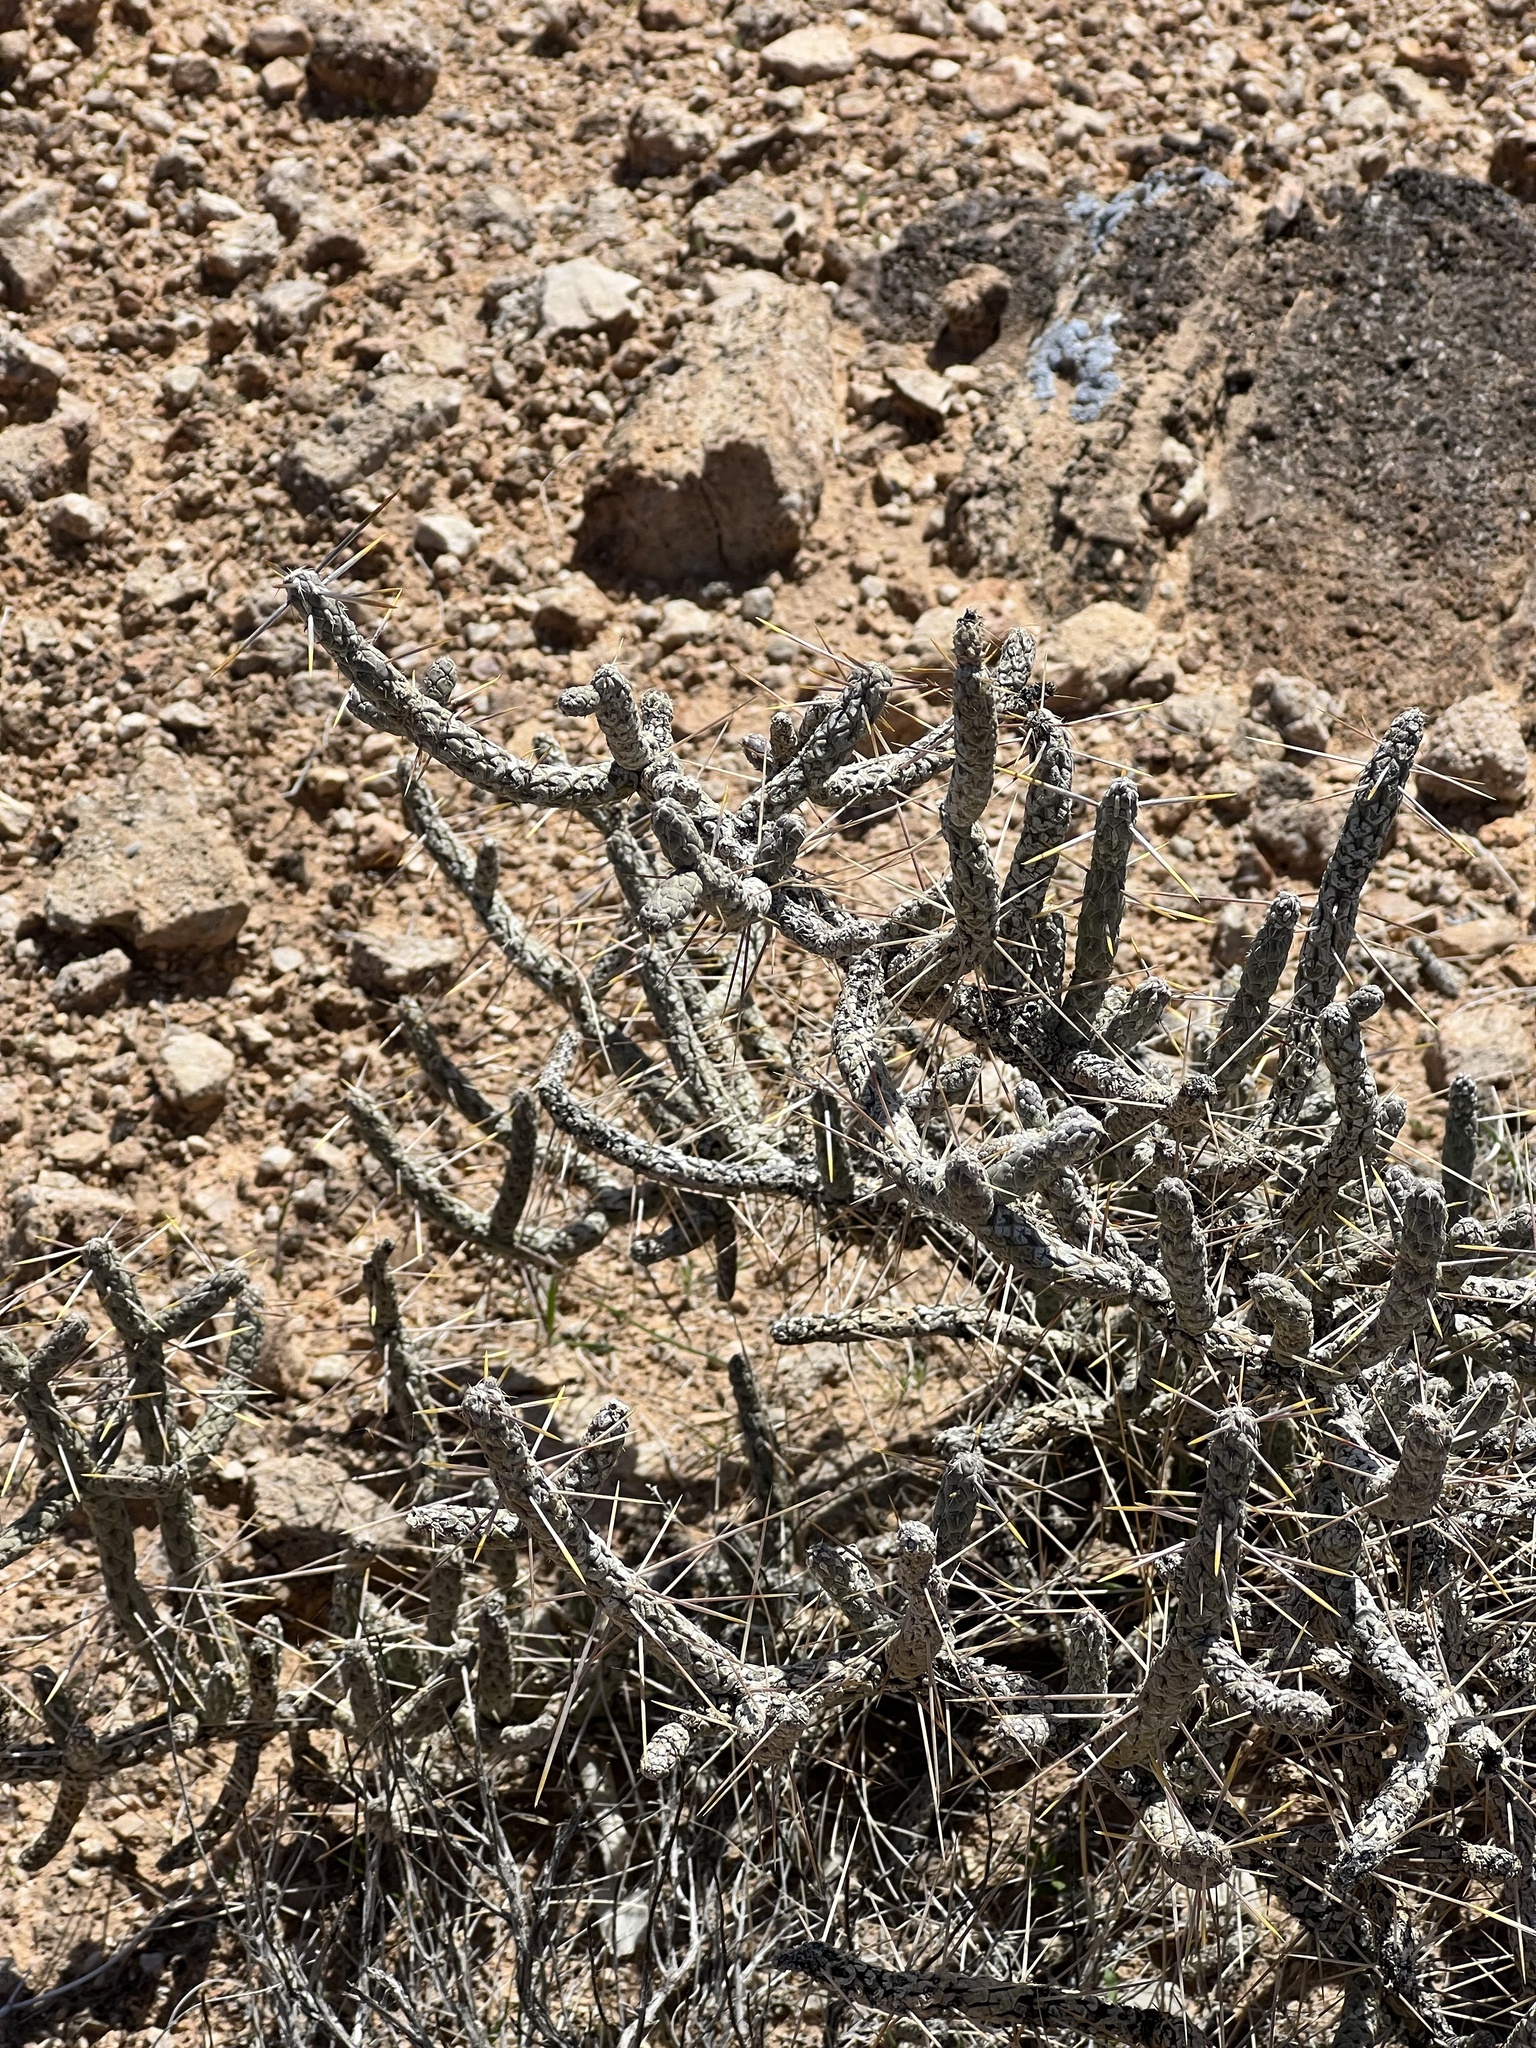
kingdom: Plantae
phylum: Tracheophyta
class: Magnoliopsida
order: Caryophyllales
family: Cactaceae
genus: Cylindropuntia
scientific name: Cylindropuntia ramosissima
